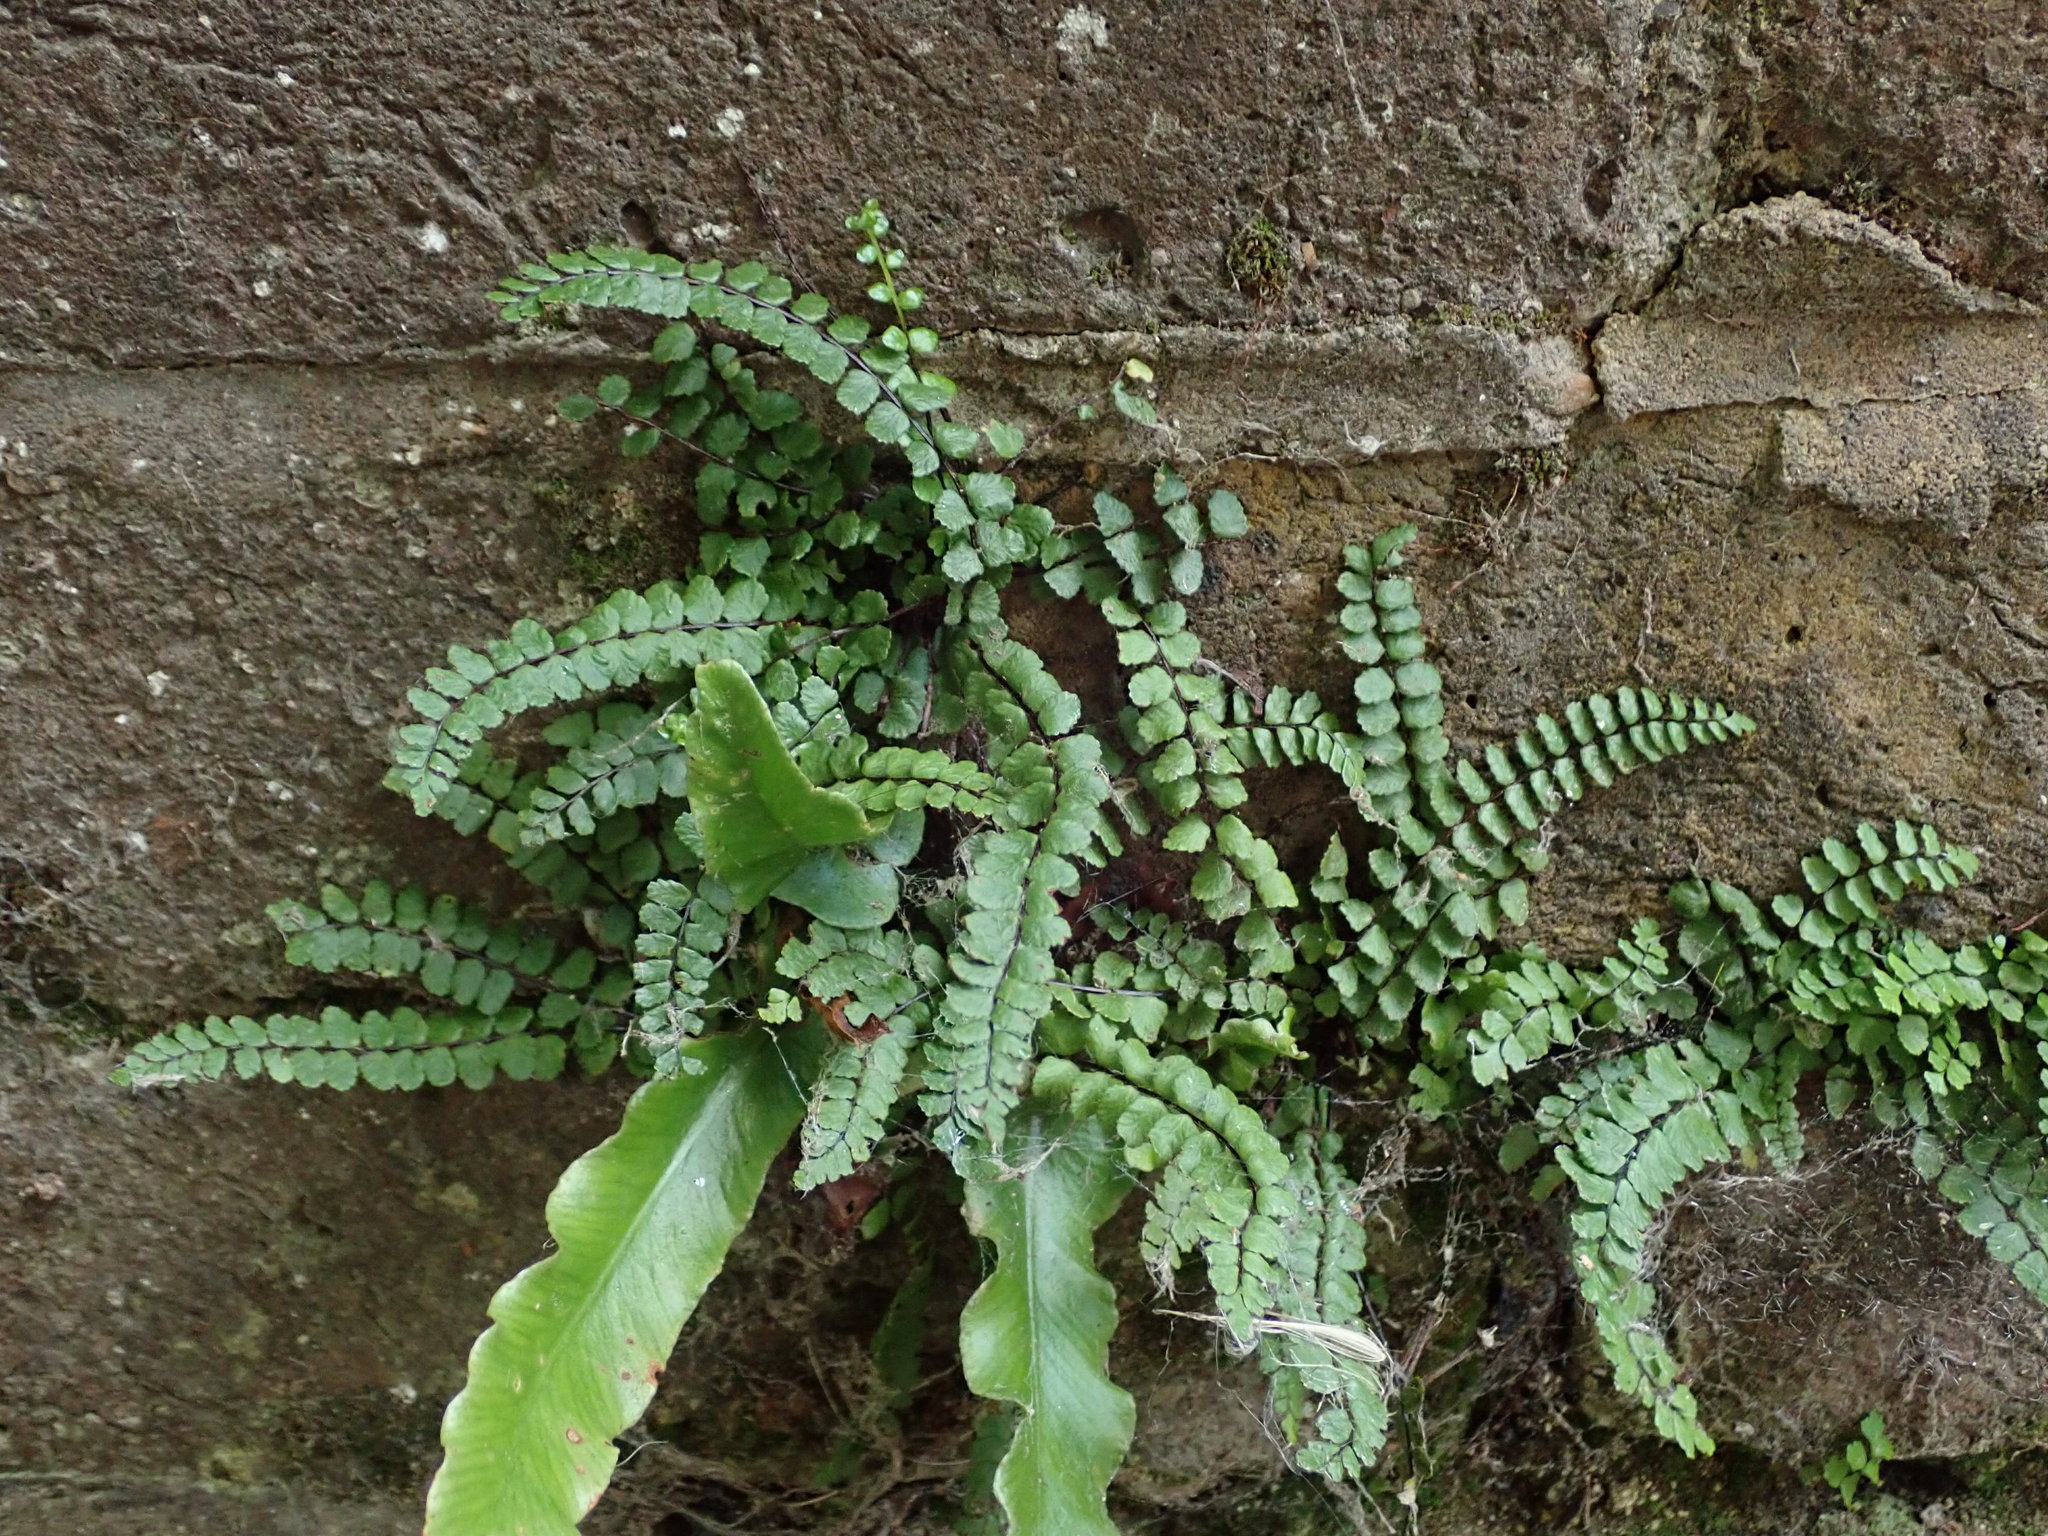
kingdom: Plantae
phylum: Tracheophyta
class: Polypodiopsida
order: Polypodiales
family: Aspleniaceae
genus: Asplenium
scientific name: Asplenium trichomanes
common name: Maidenhair spleenwort
